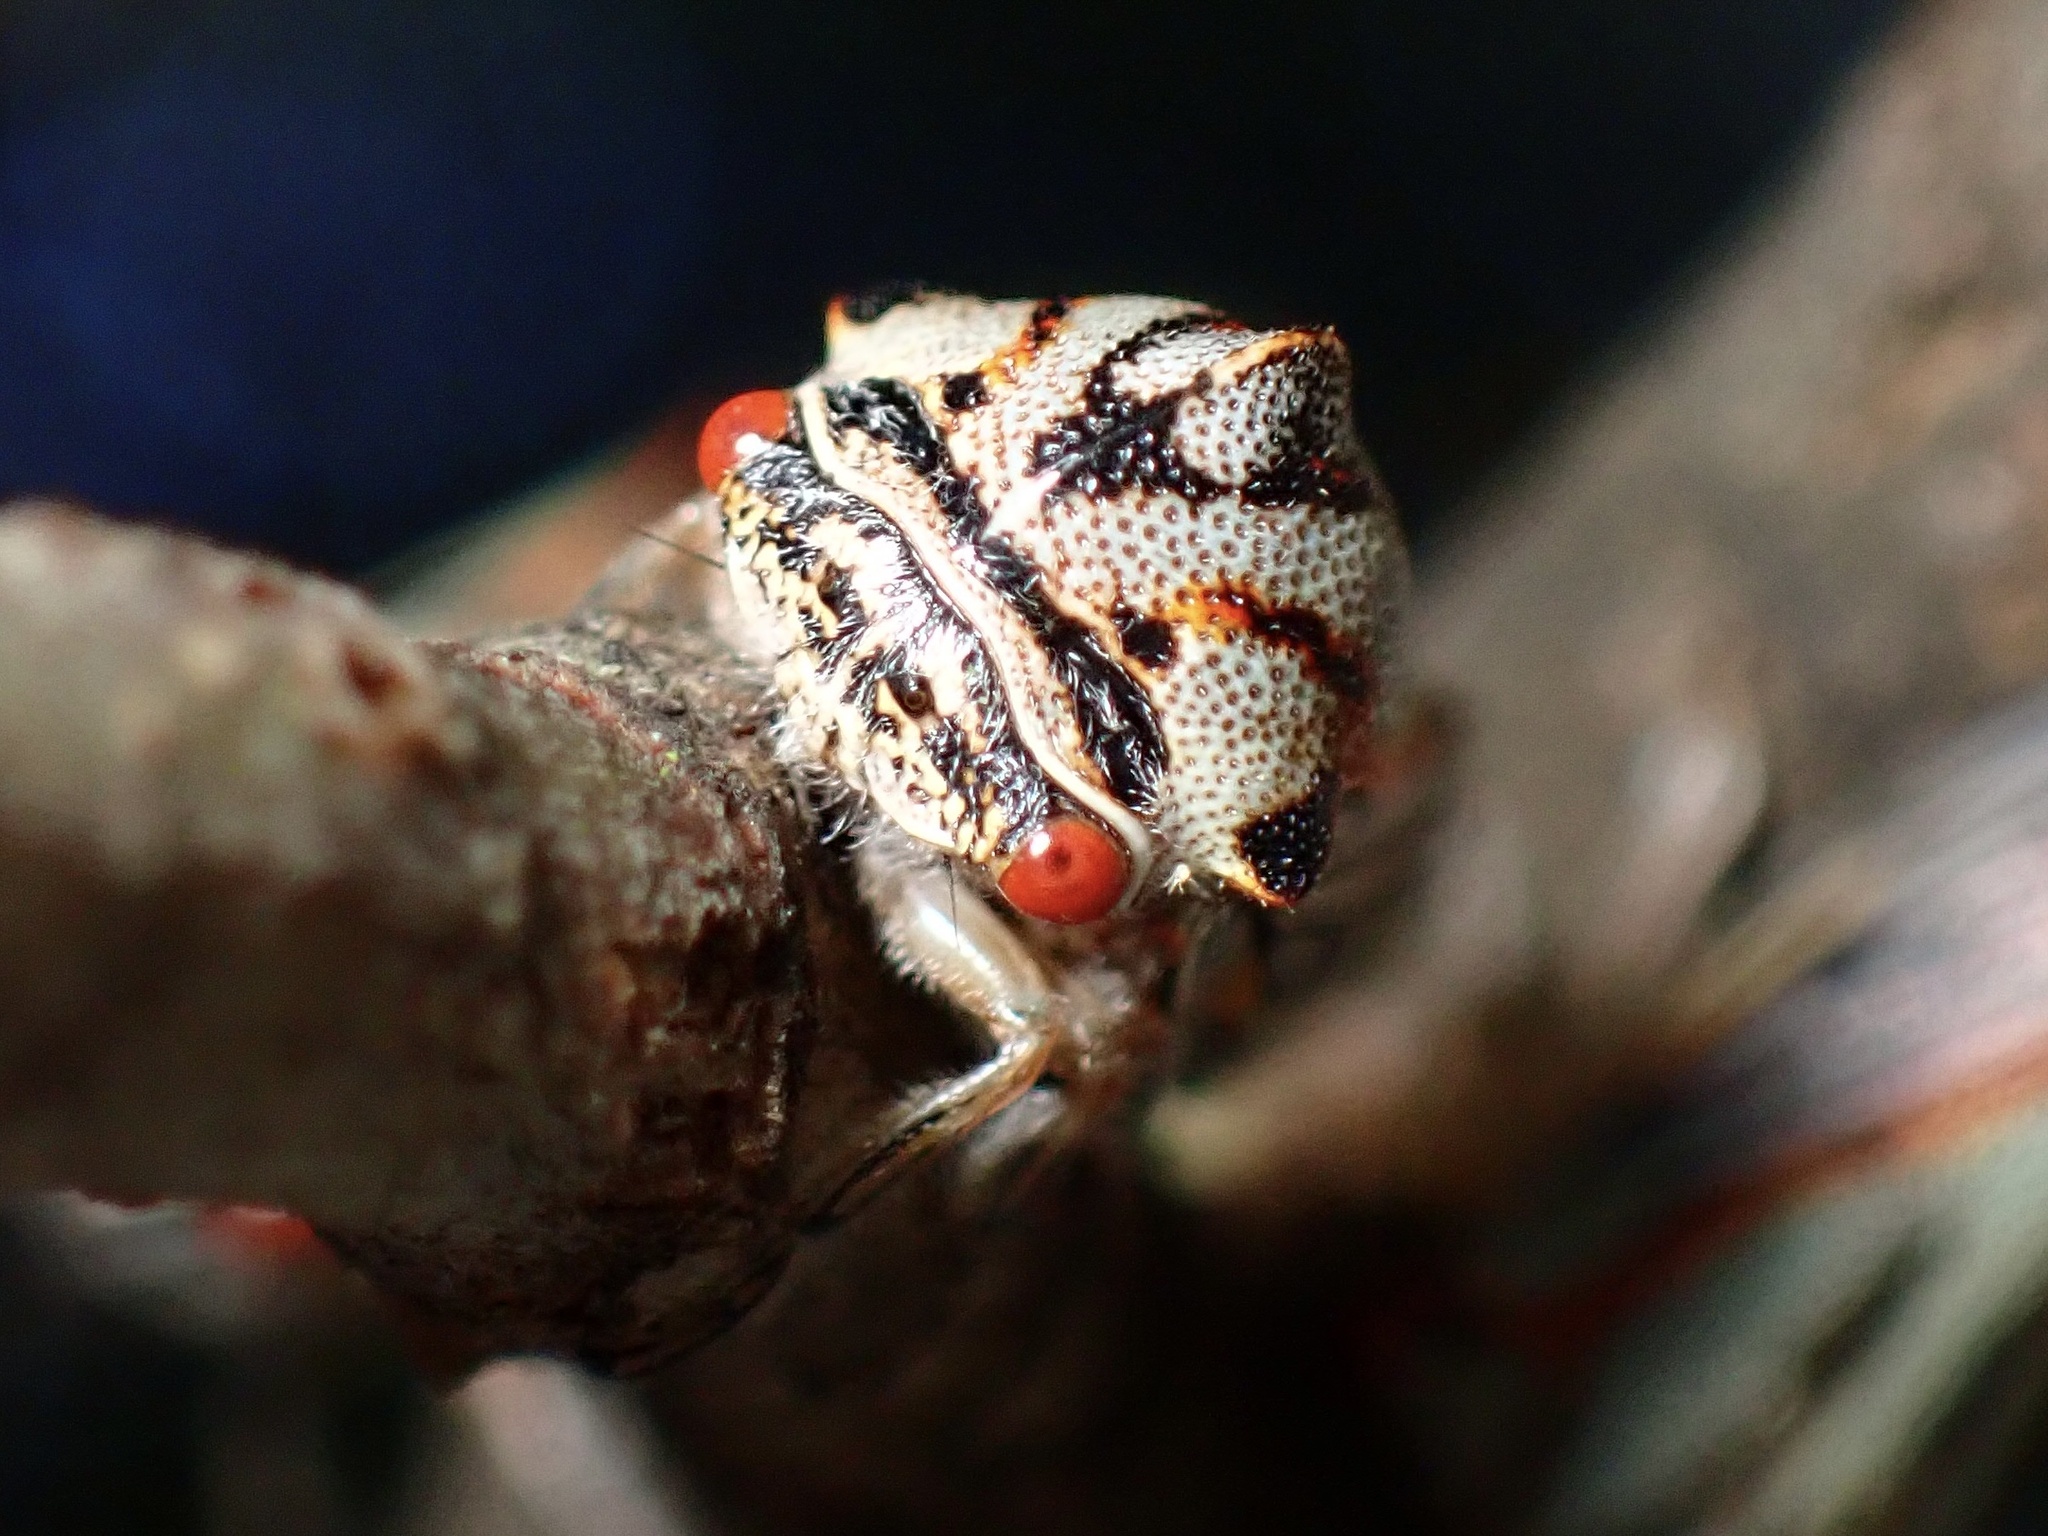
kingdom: Animalia
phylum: Arthropoda
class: Insecta
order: Hemiptera
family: Membracidae
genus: Platycotis
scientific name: Platycotis vittatus
